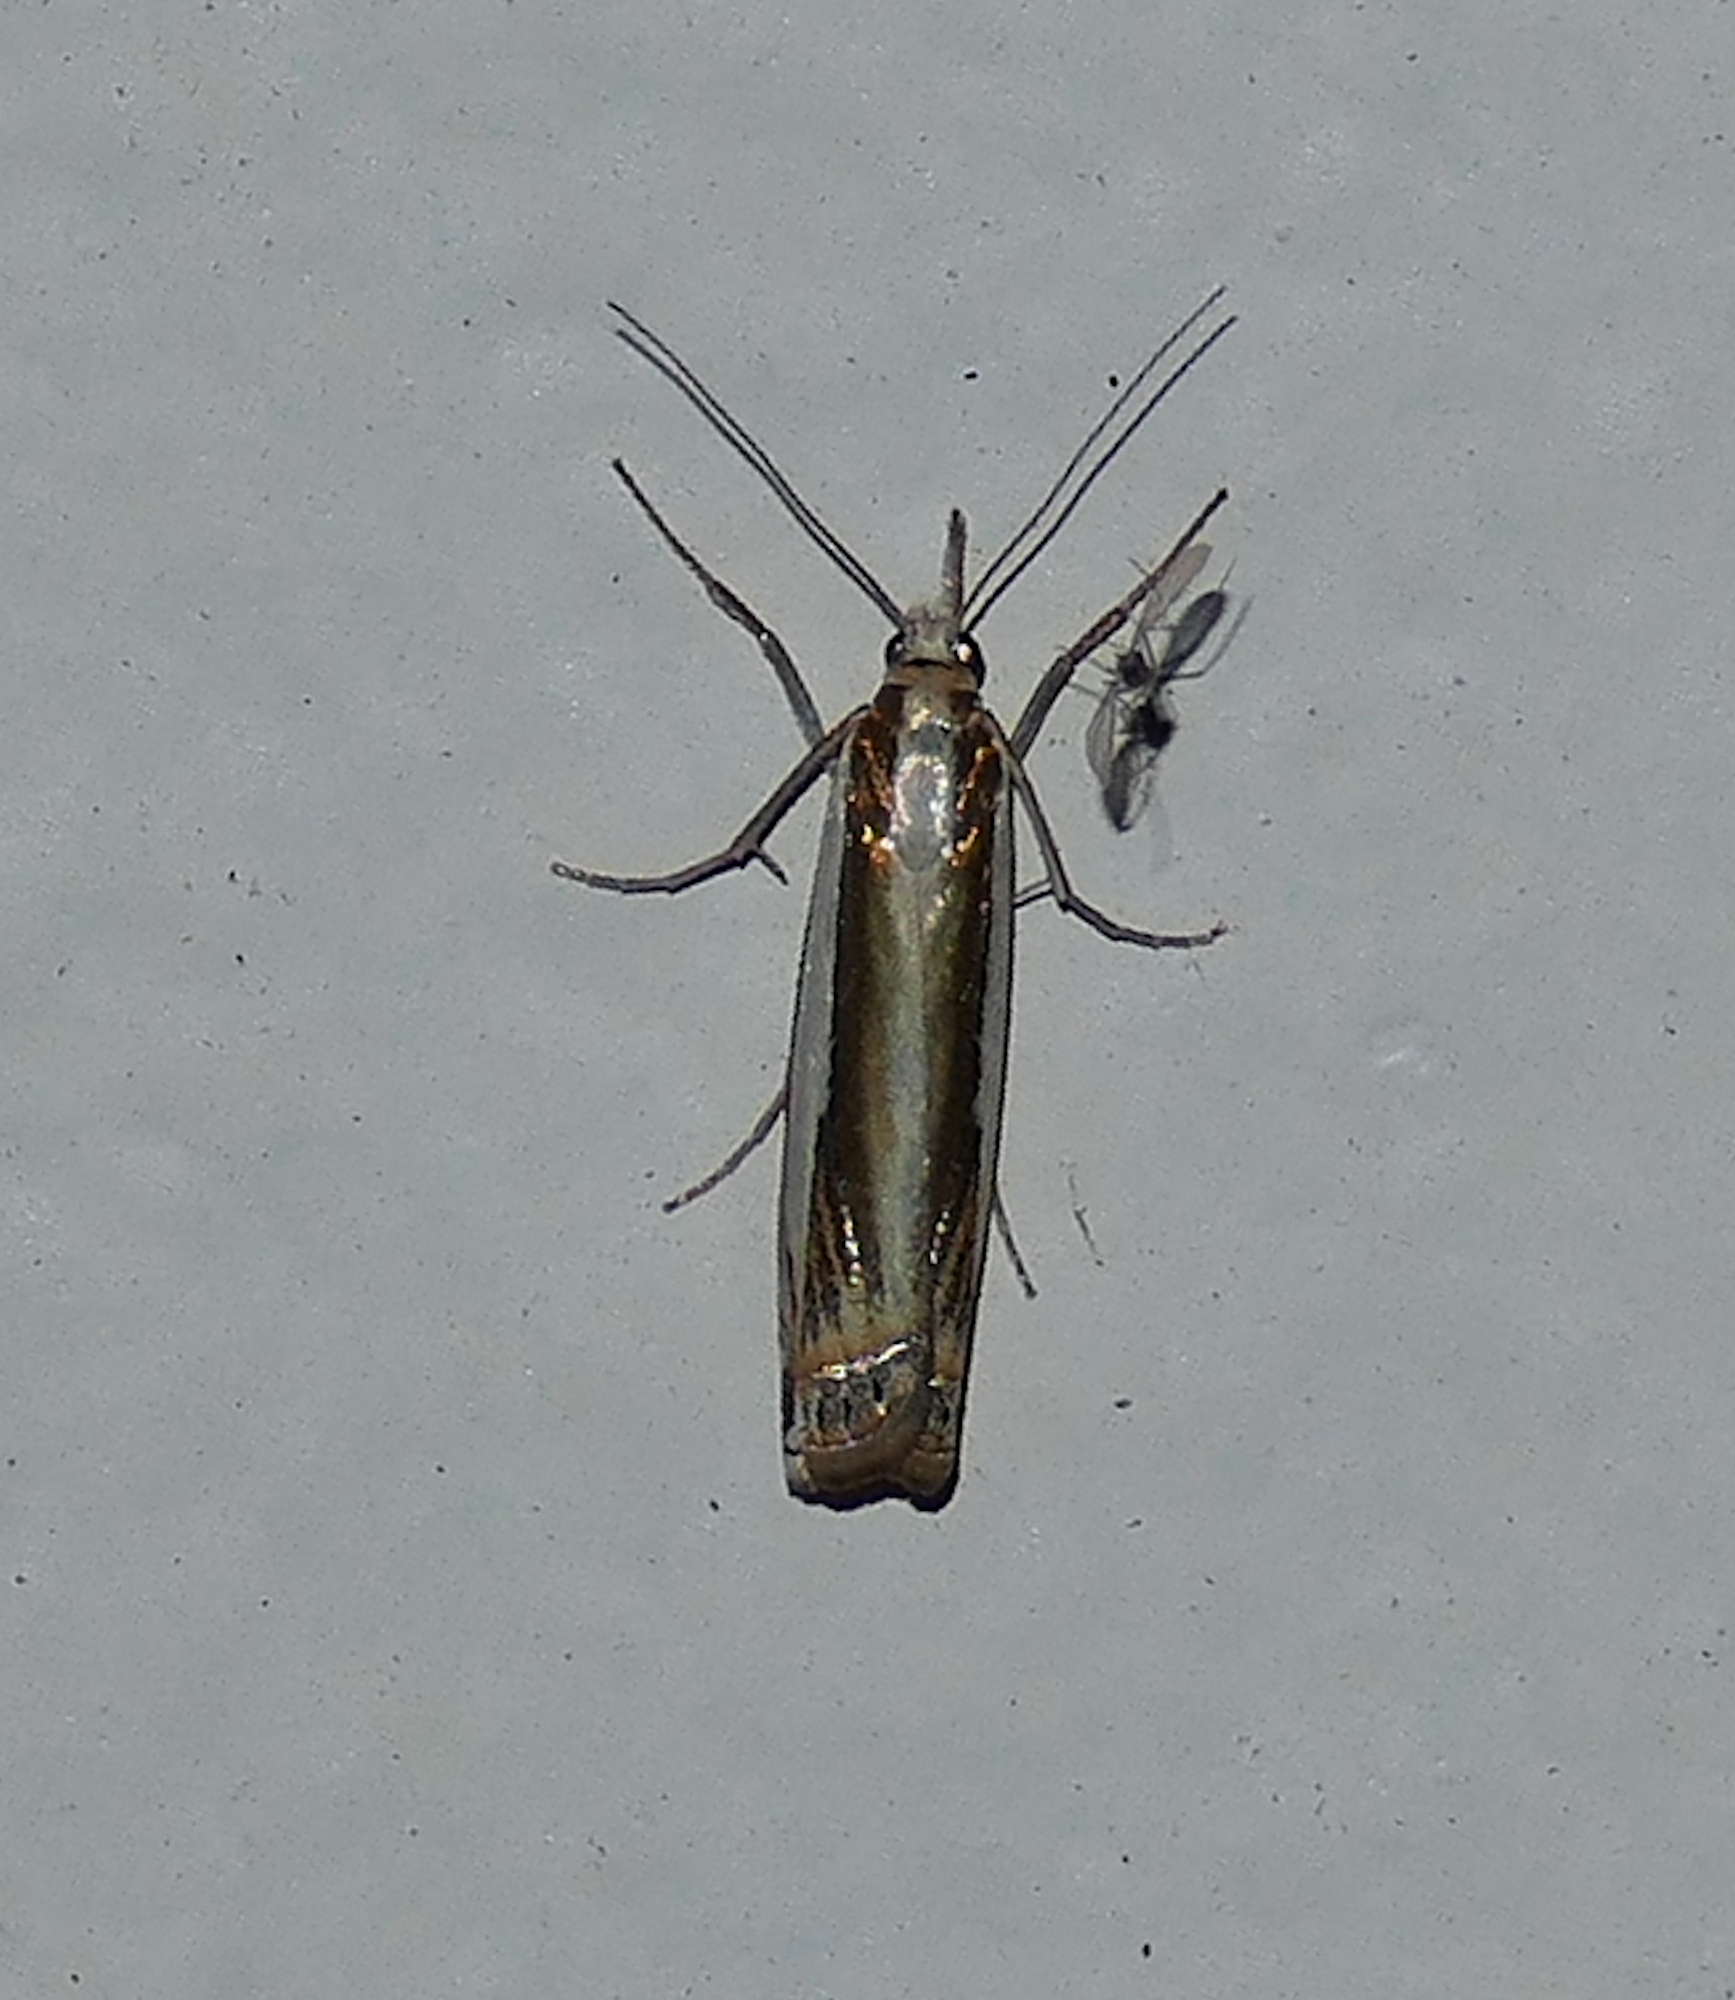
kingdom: Animalia
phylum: Arthropoda
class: Insecta
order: Lepidoptera
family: Crambidae
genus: Crambus
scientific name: Crambus cyrilellus
